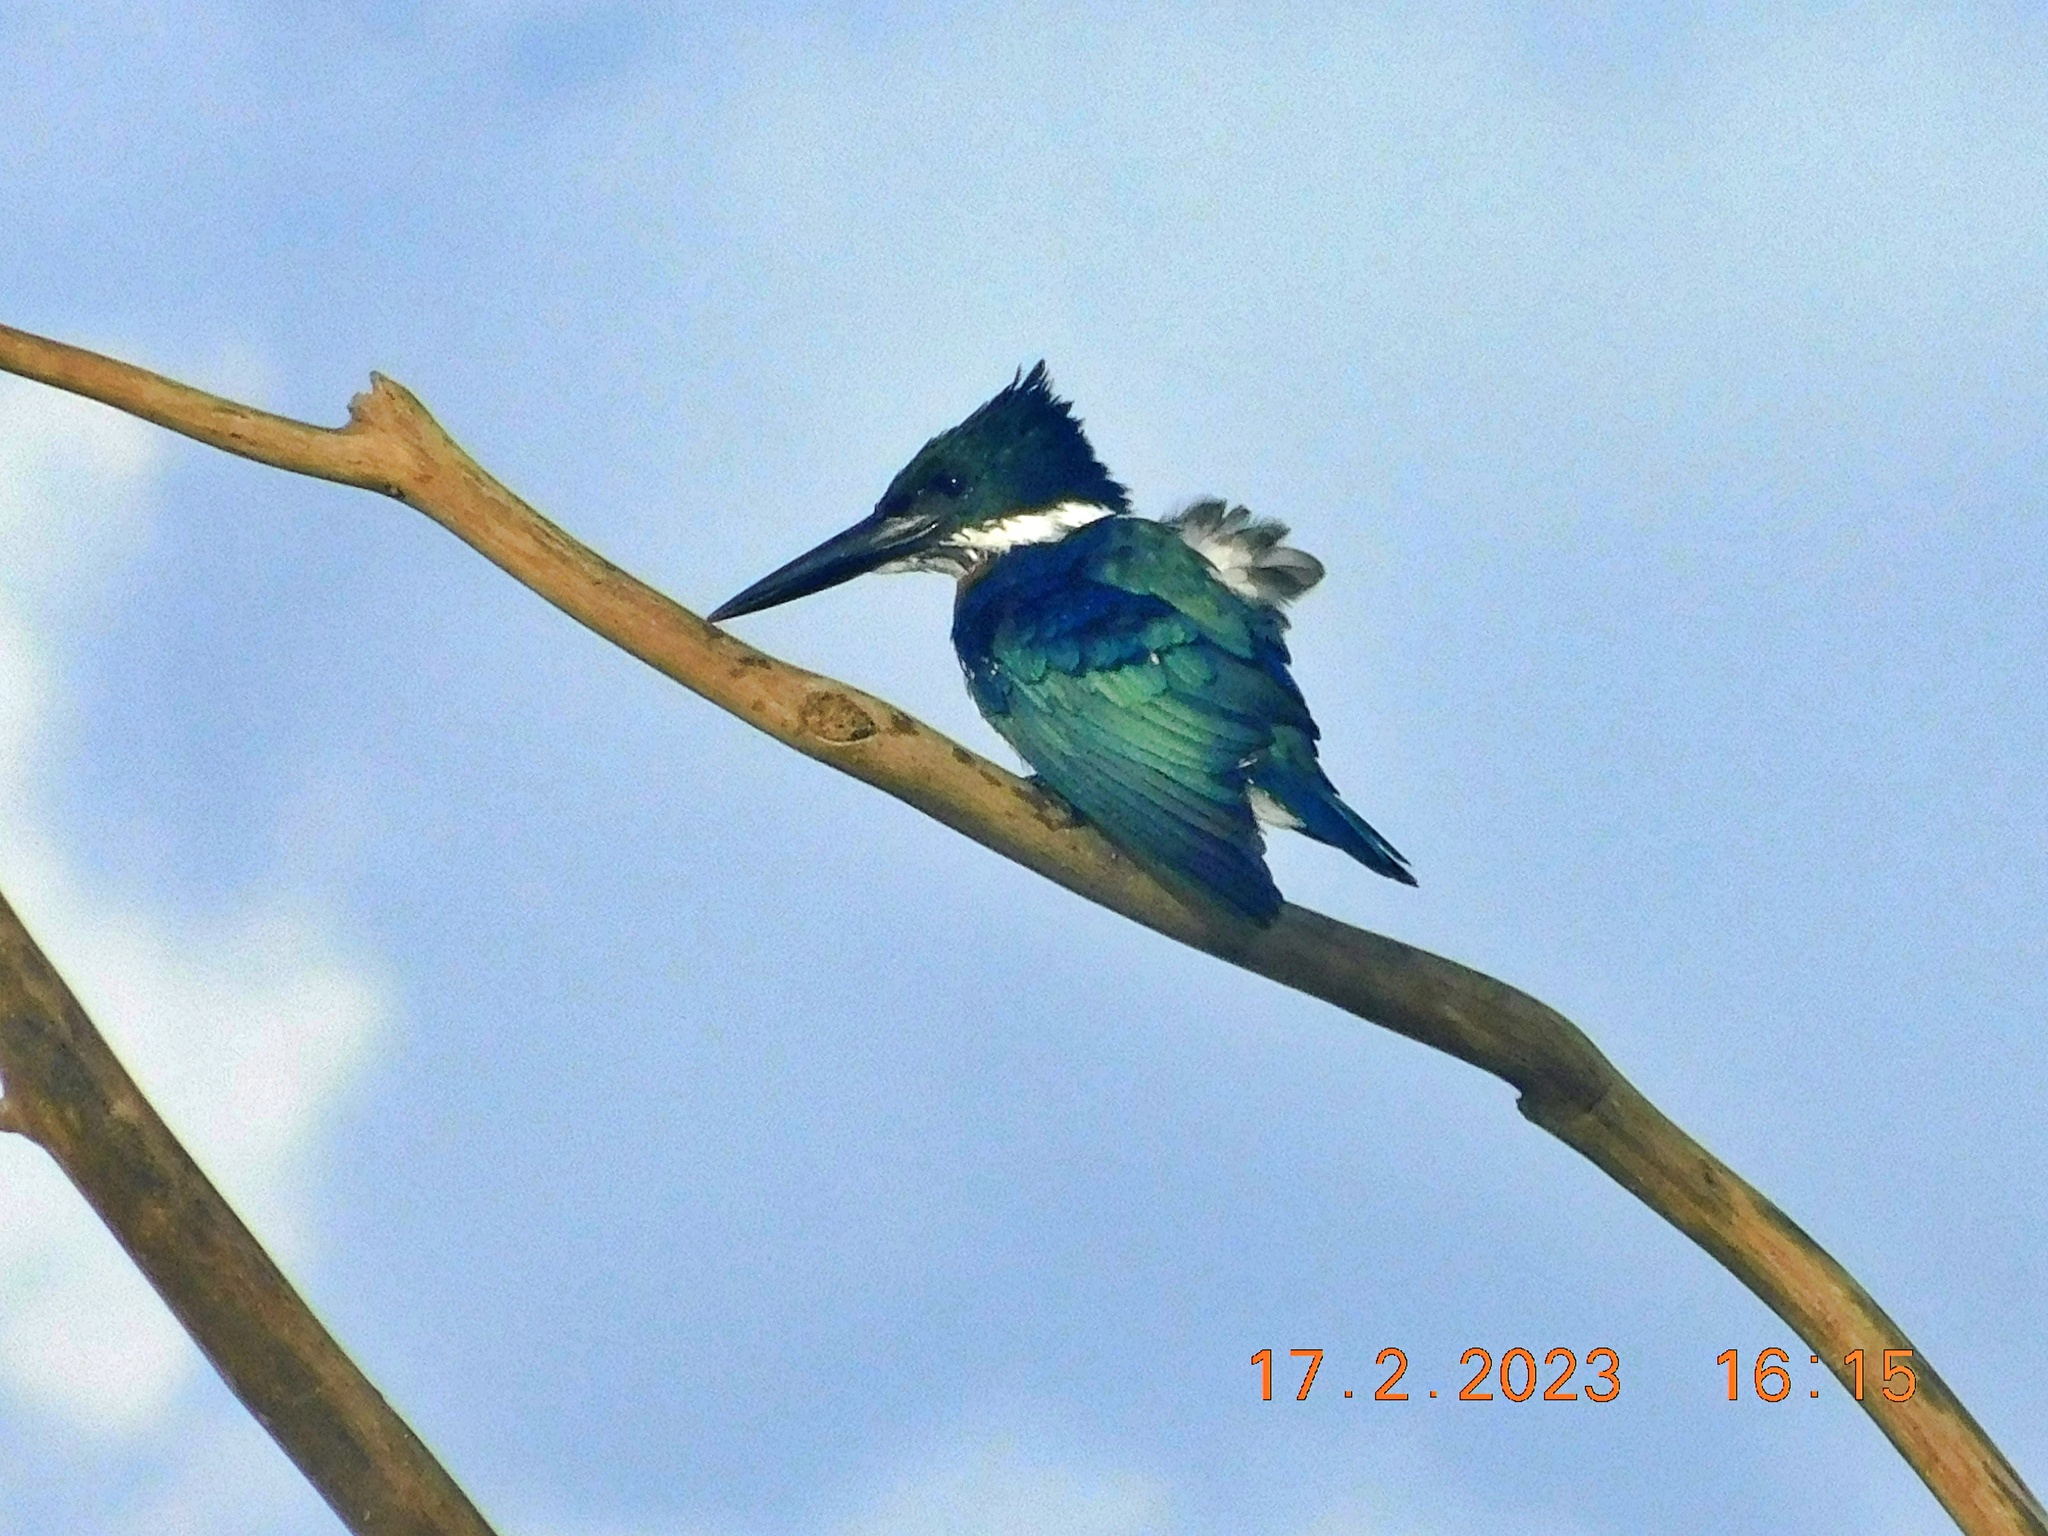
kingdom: Animalia
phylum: Chordata
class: Aves
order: Coraciiformes
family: Alcedinidae
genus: Chloroceryle
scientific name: Chloroceryle amazona
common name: Amazon kingfisher
